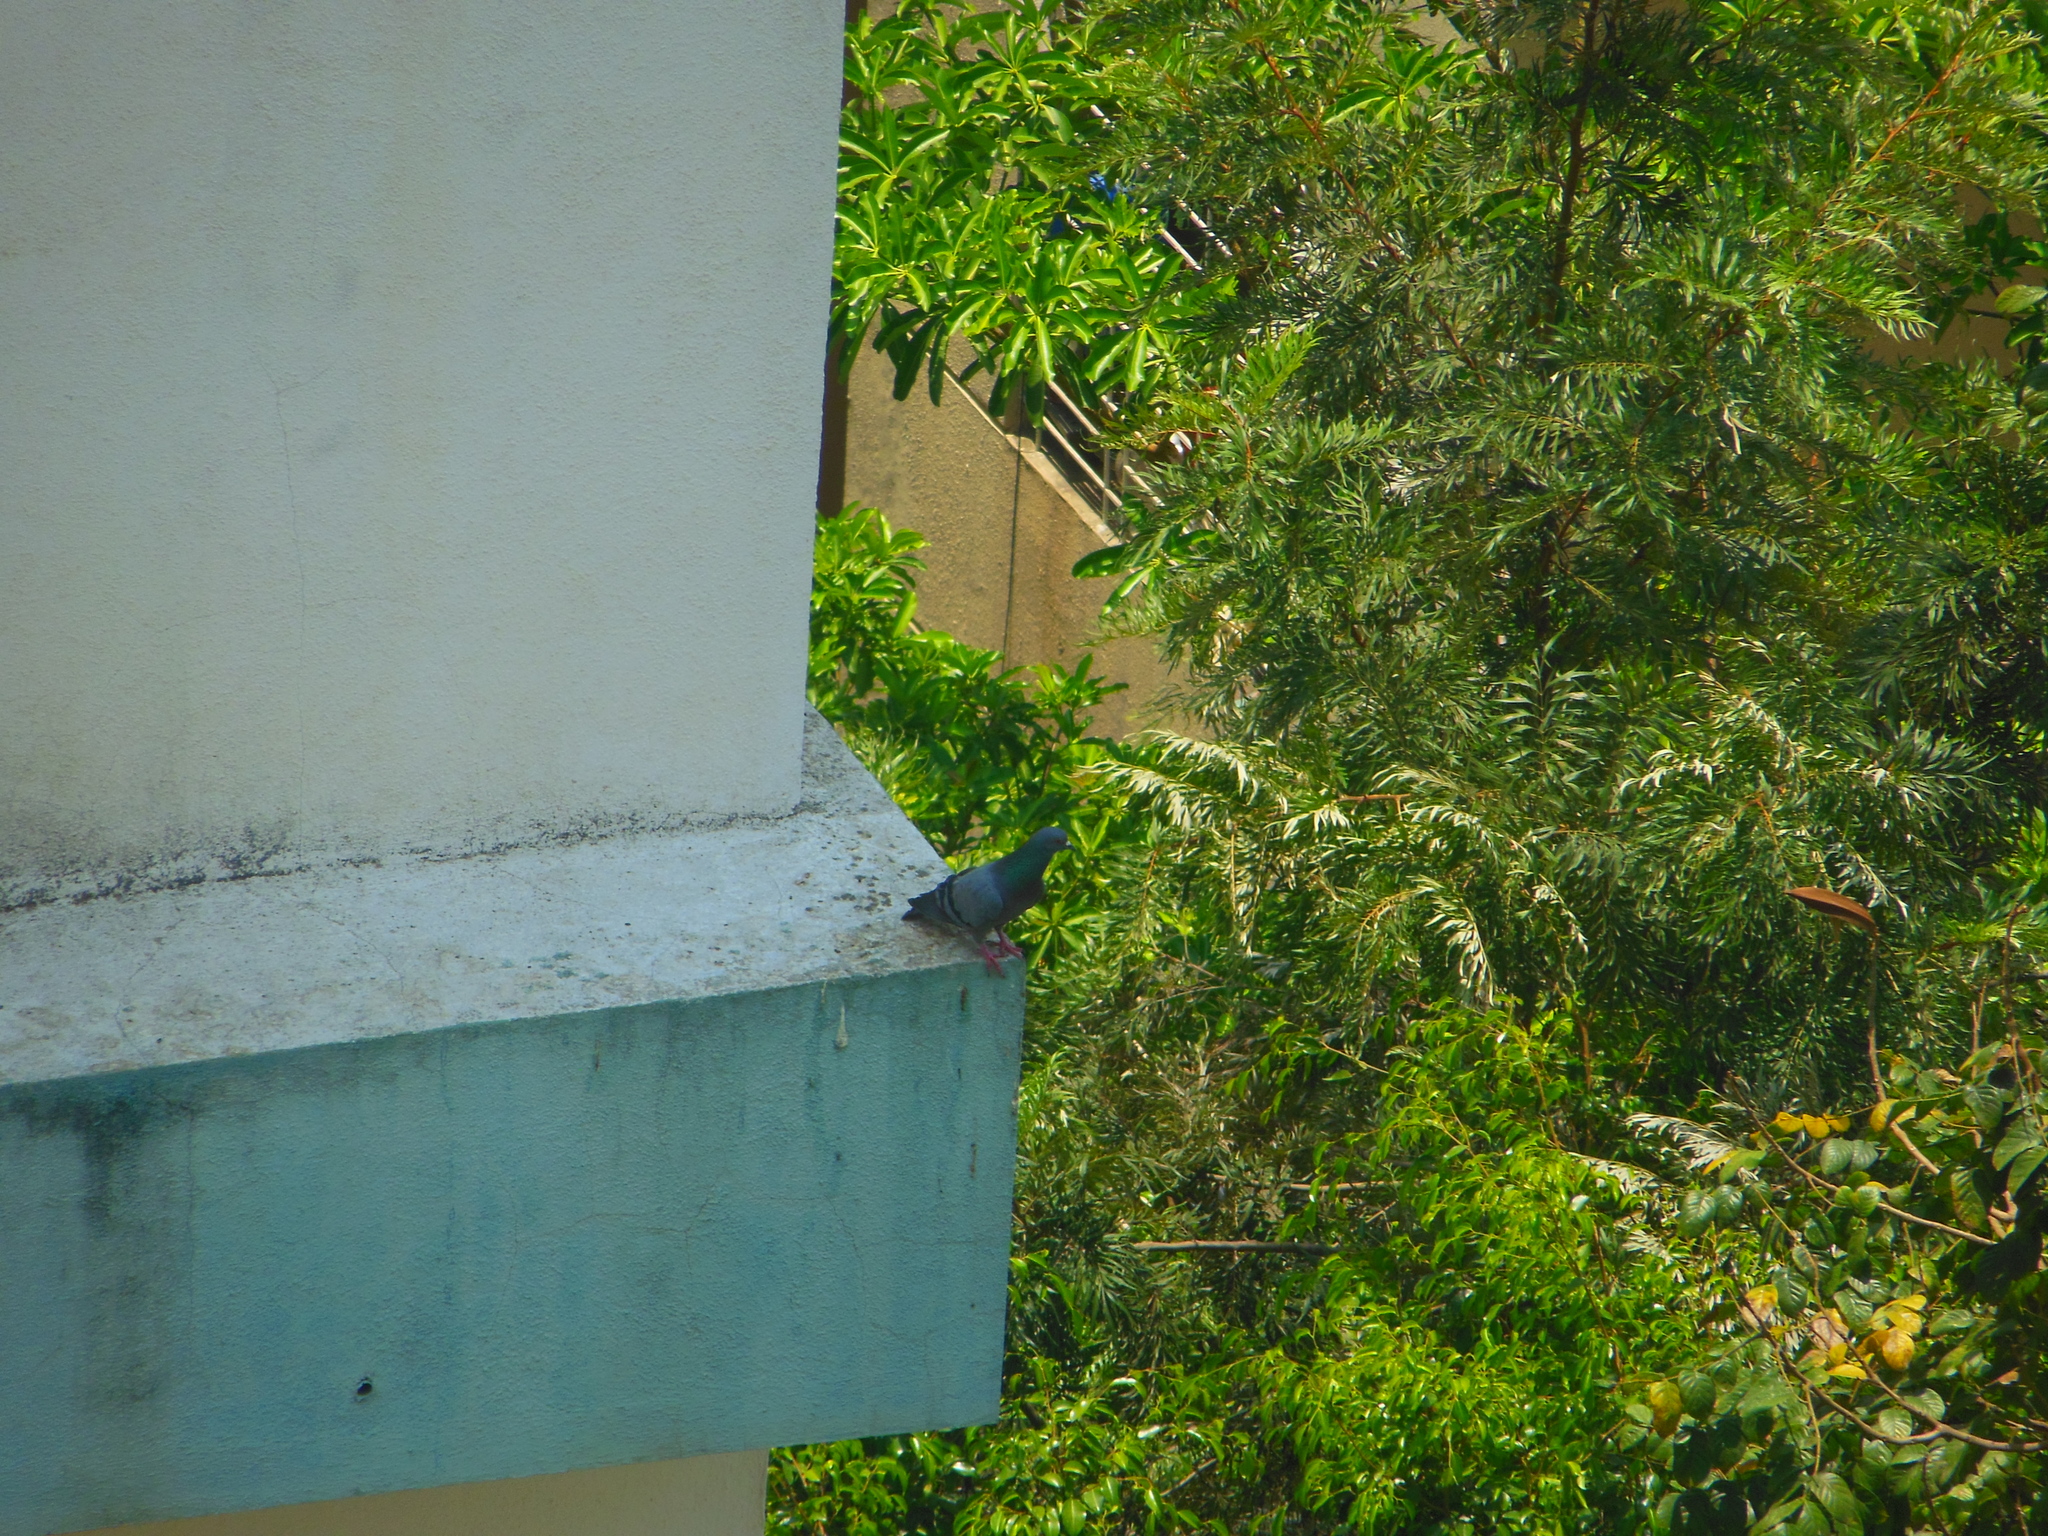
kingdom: Animalia
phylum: Chordata
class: Aves
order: Columbiformes
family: Columbidae
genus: Columba
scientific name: Columba livia
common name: Rock pigeon
